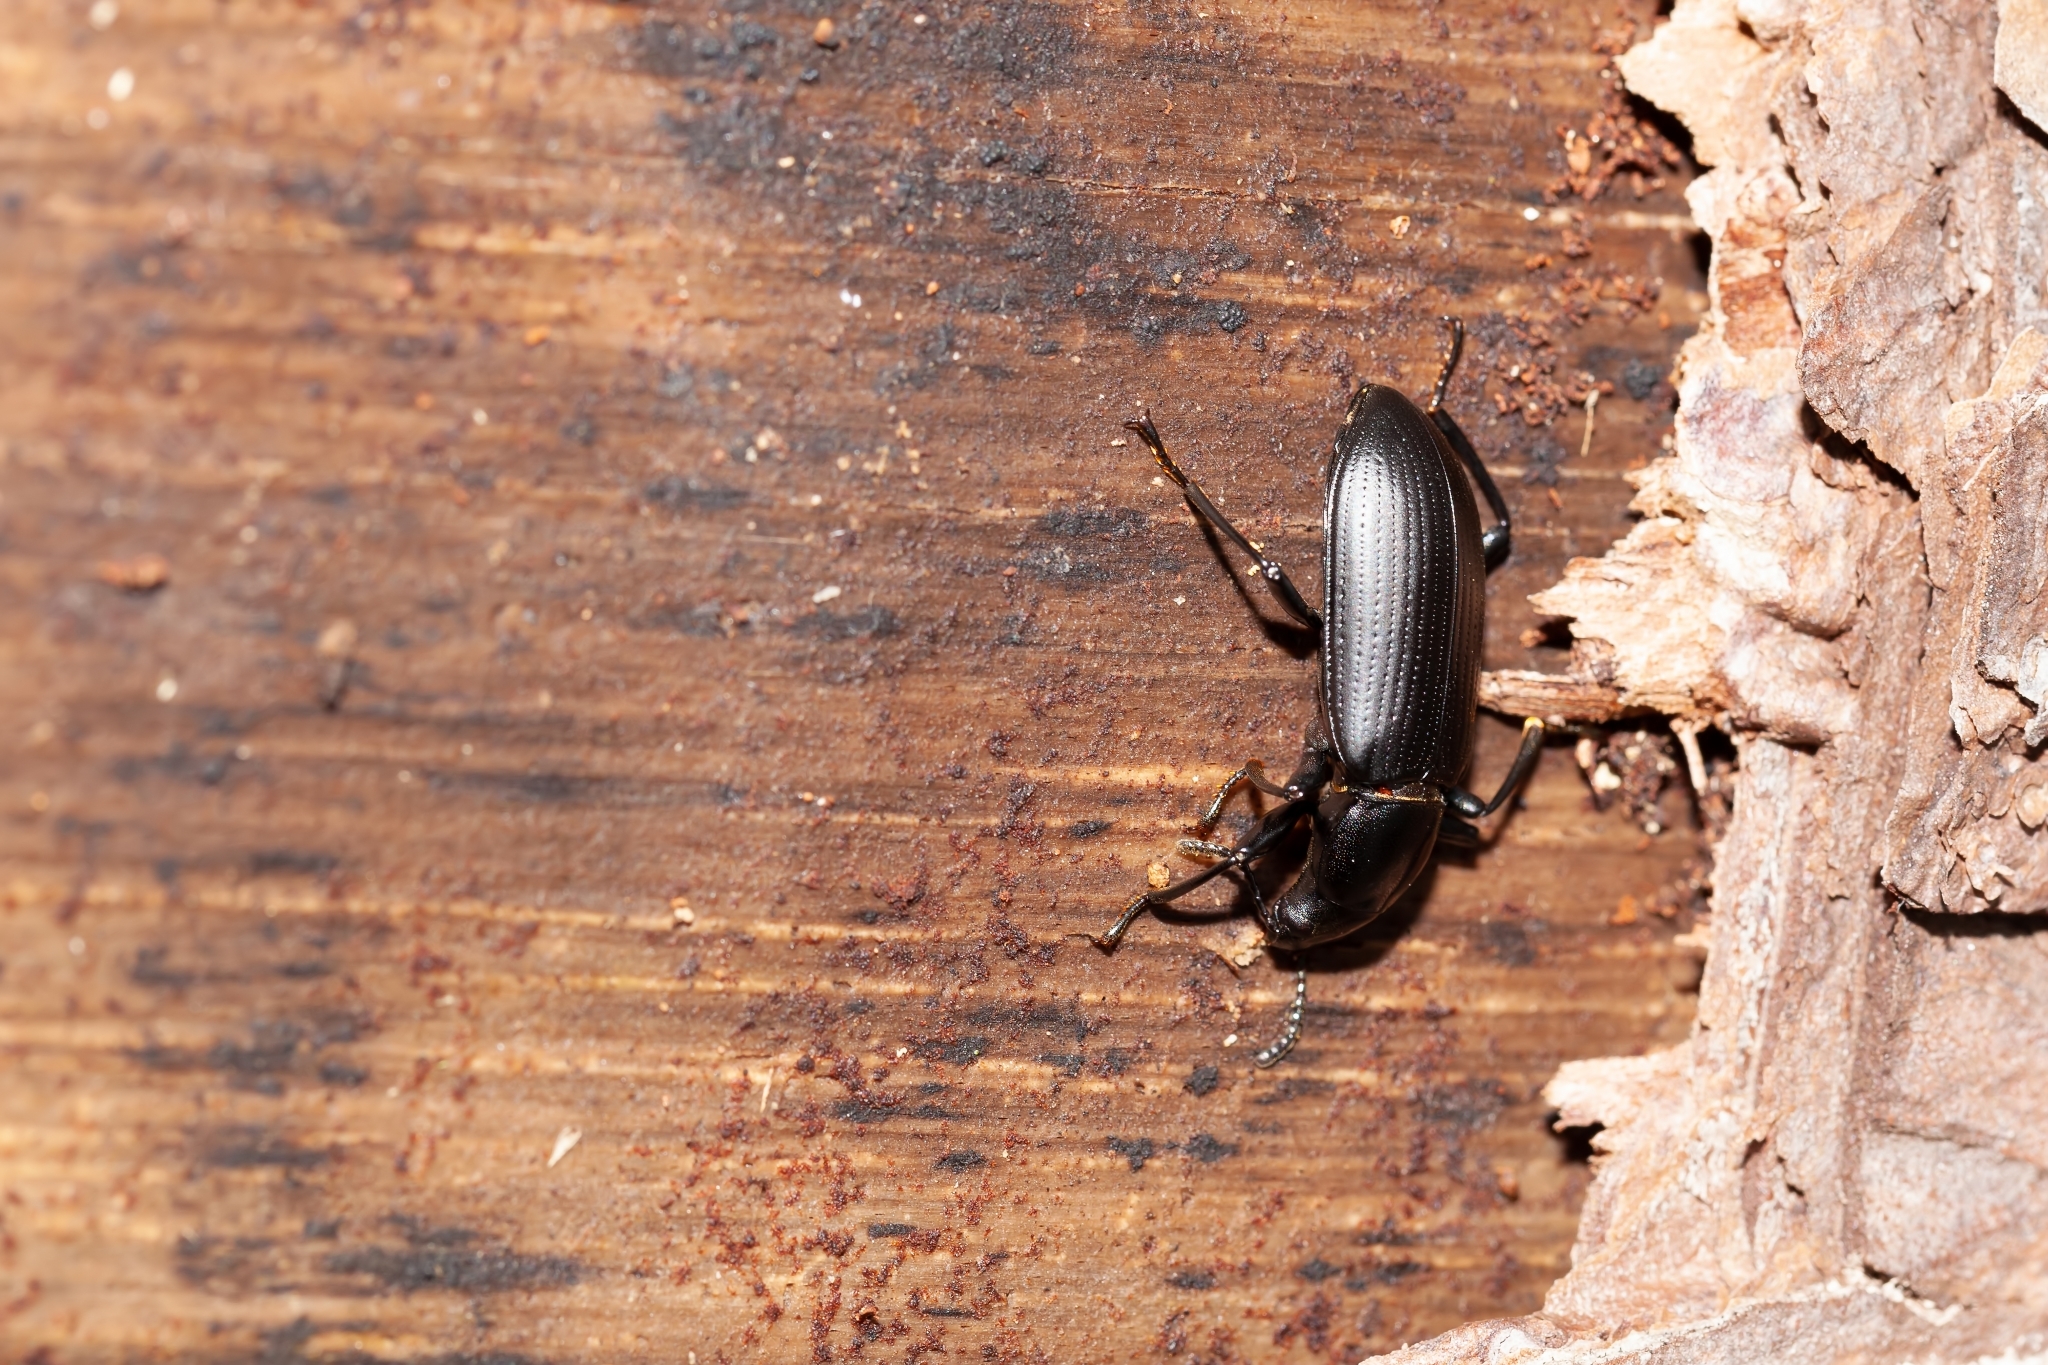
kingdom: Animalia
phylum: Arthropoda
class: Insecta
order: Coleoptera
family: Tenebrionidae
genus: Alobates
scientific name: Alobates
